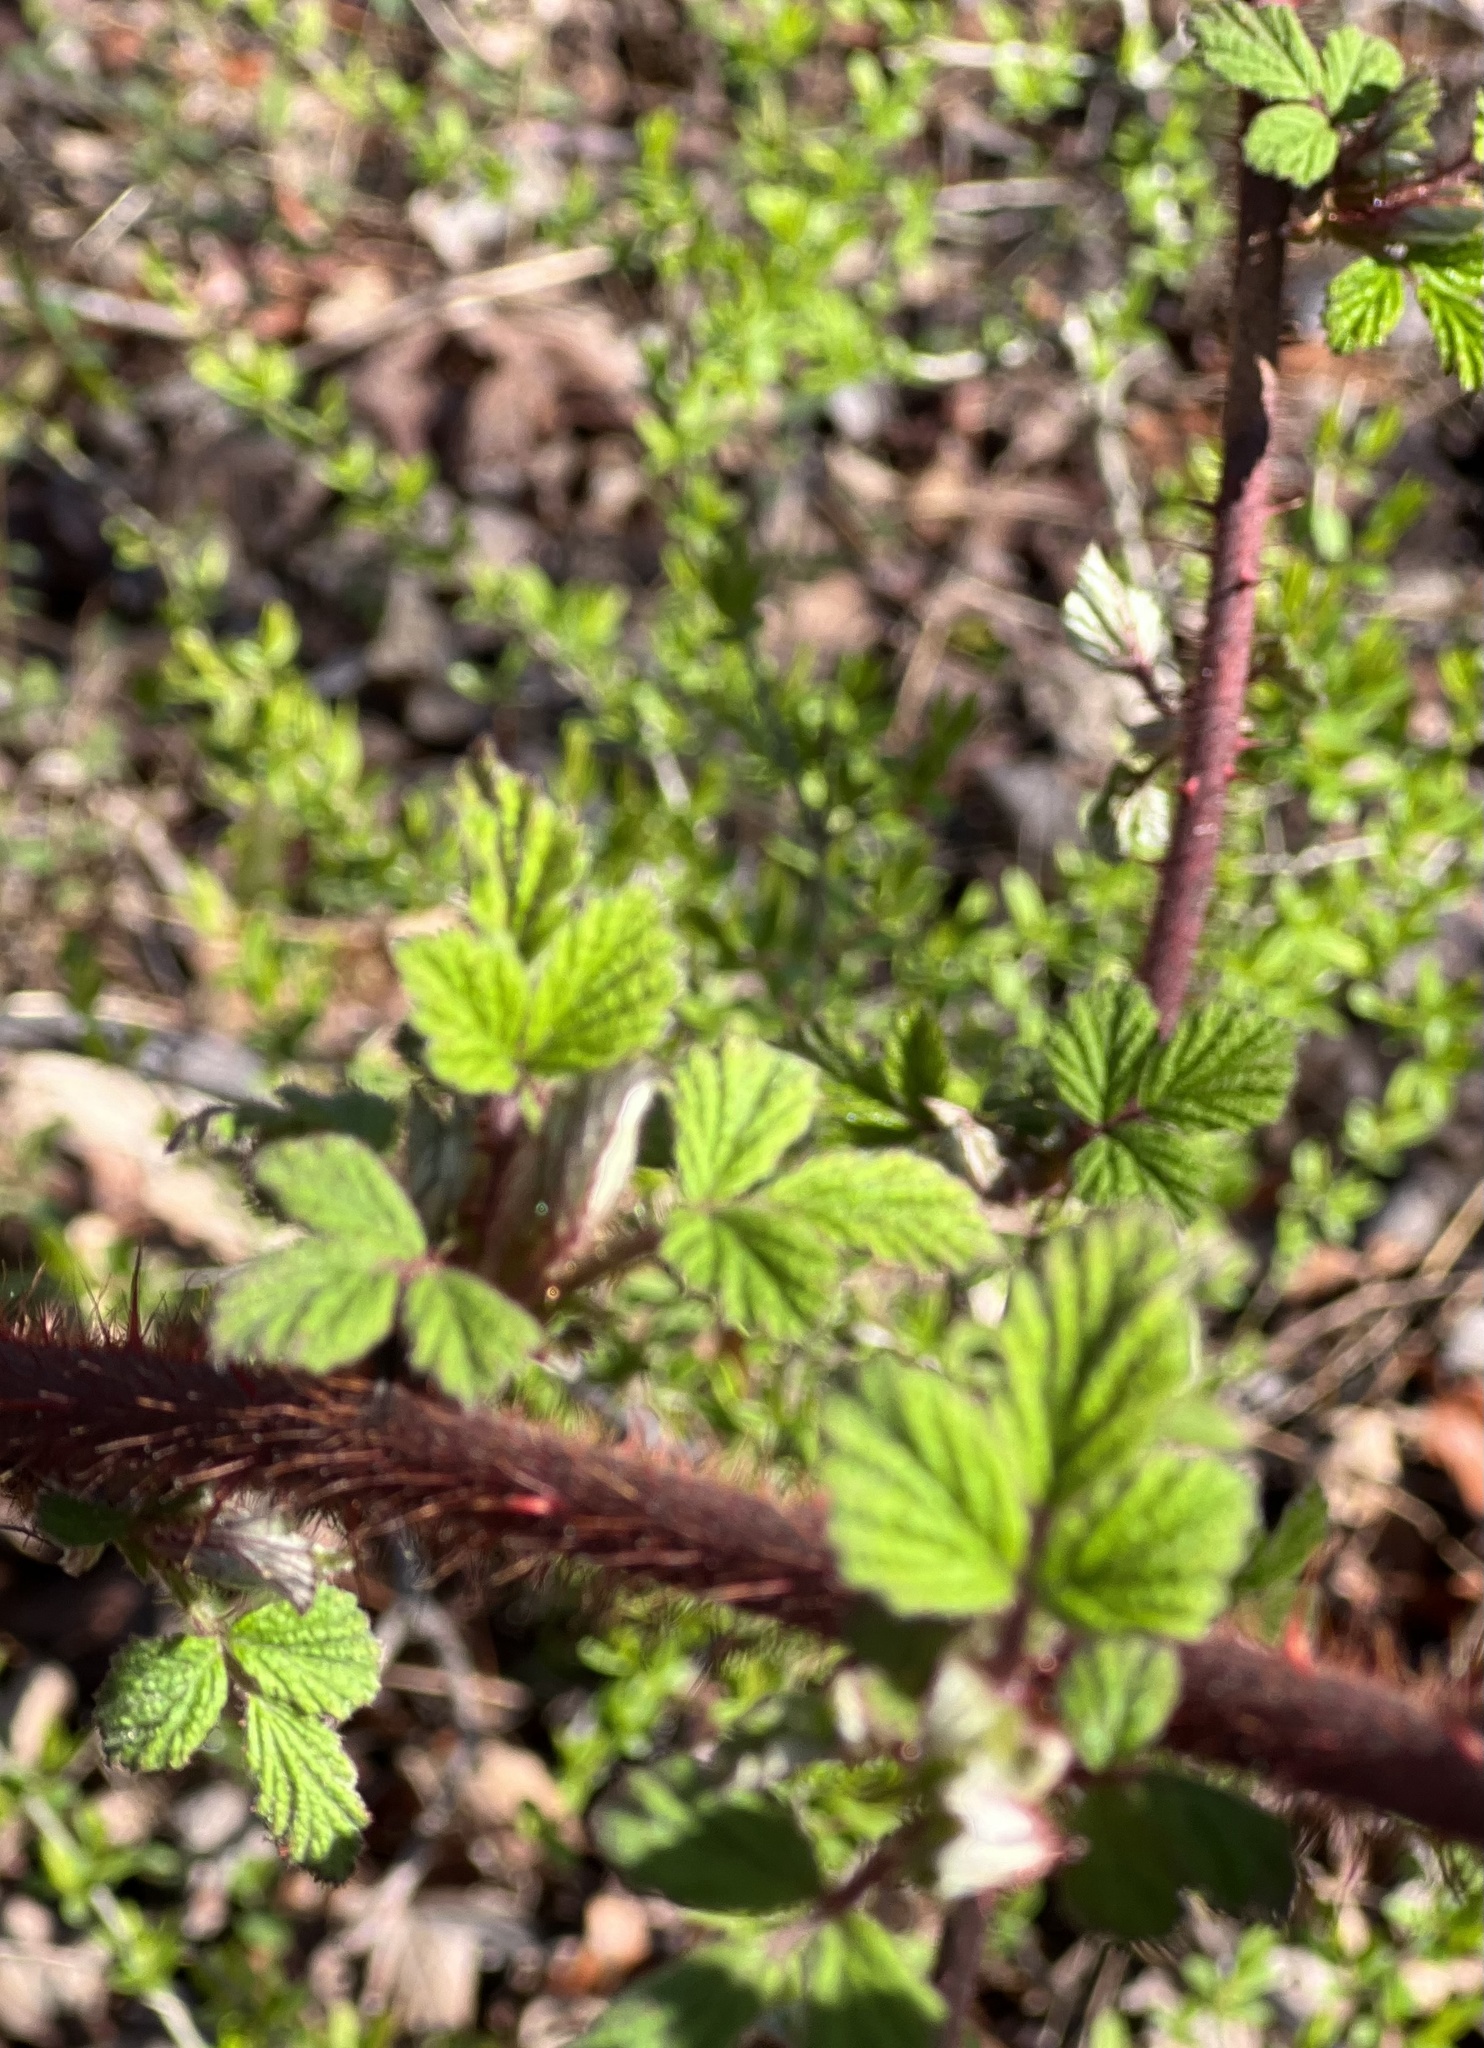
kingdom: Plantae
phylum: Tracheophyta
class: Magnoliopsida
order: Rosales
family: Rosaceae
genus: Rubus
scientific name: Rubus phoenicolasius
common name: Japanese wineberry
